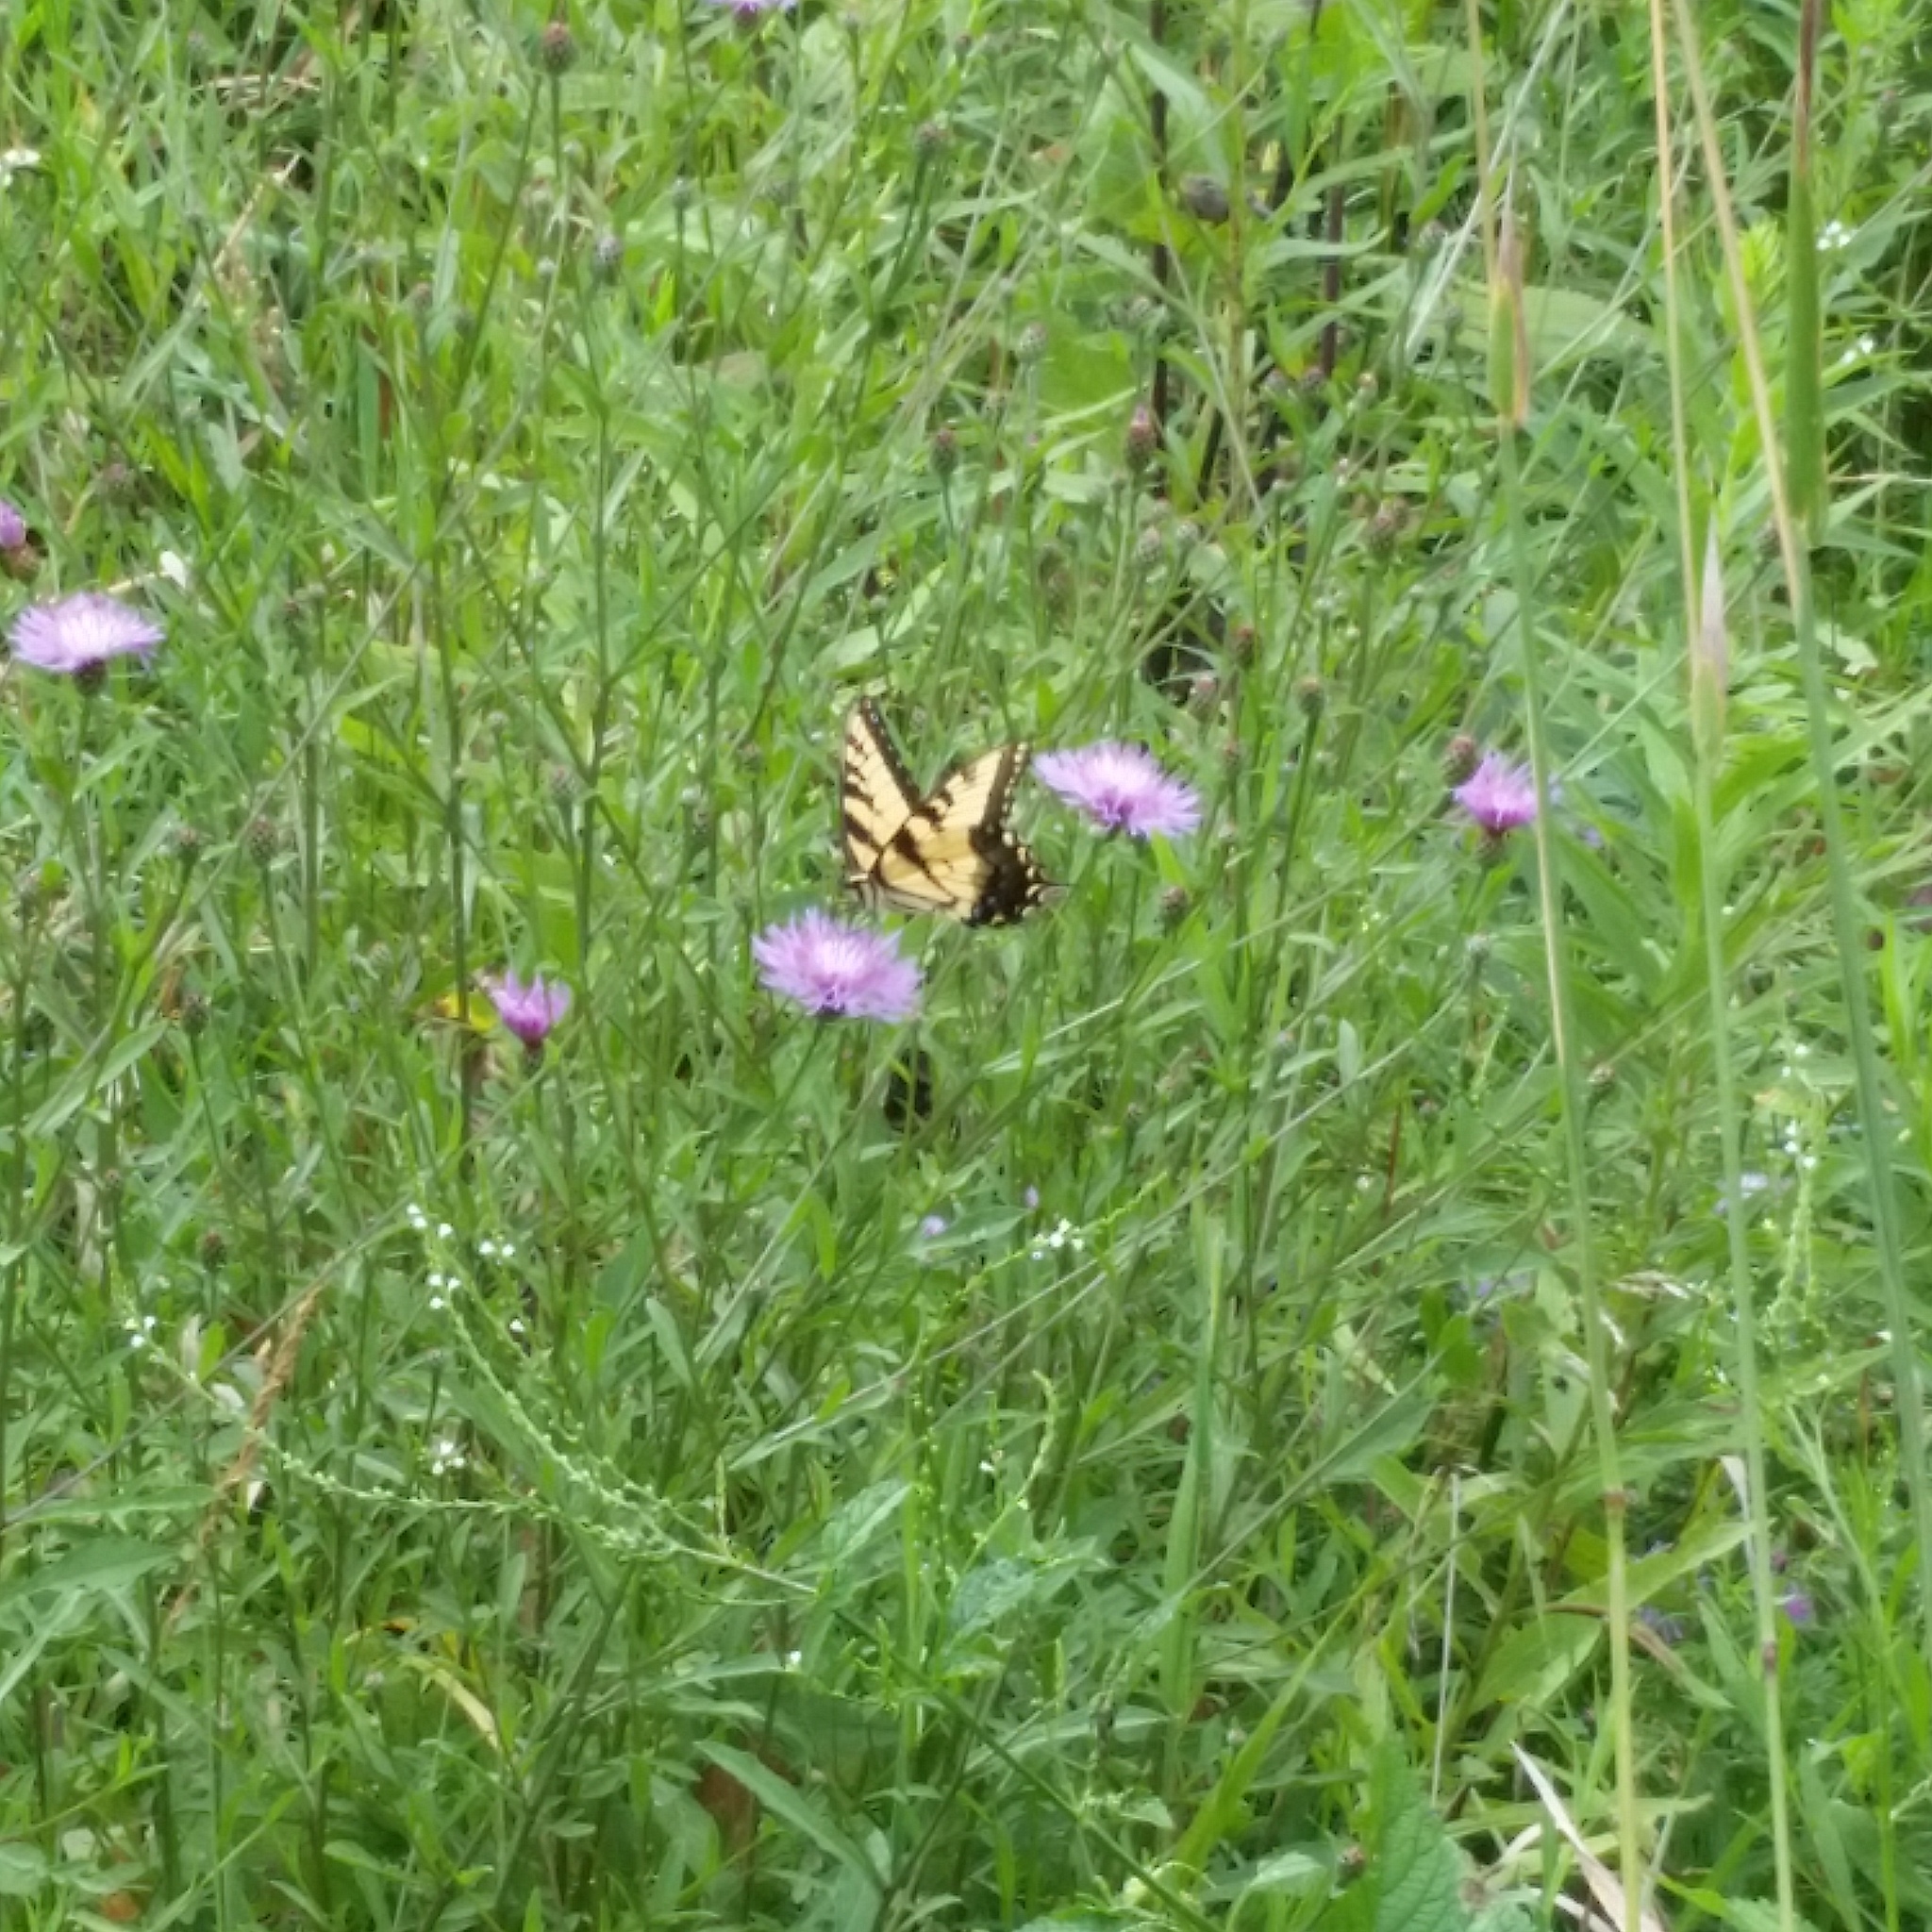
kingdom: Animalia
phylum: Arthropoda
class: Insecta
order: Lepidoptera
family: Papilionidae
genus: Papilio
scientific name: Papilio glaucus
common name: Tiger swallowtail
